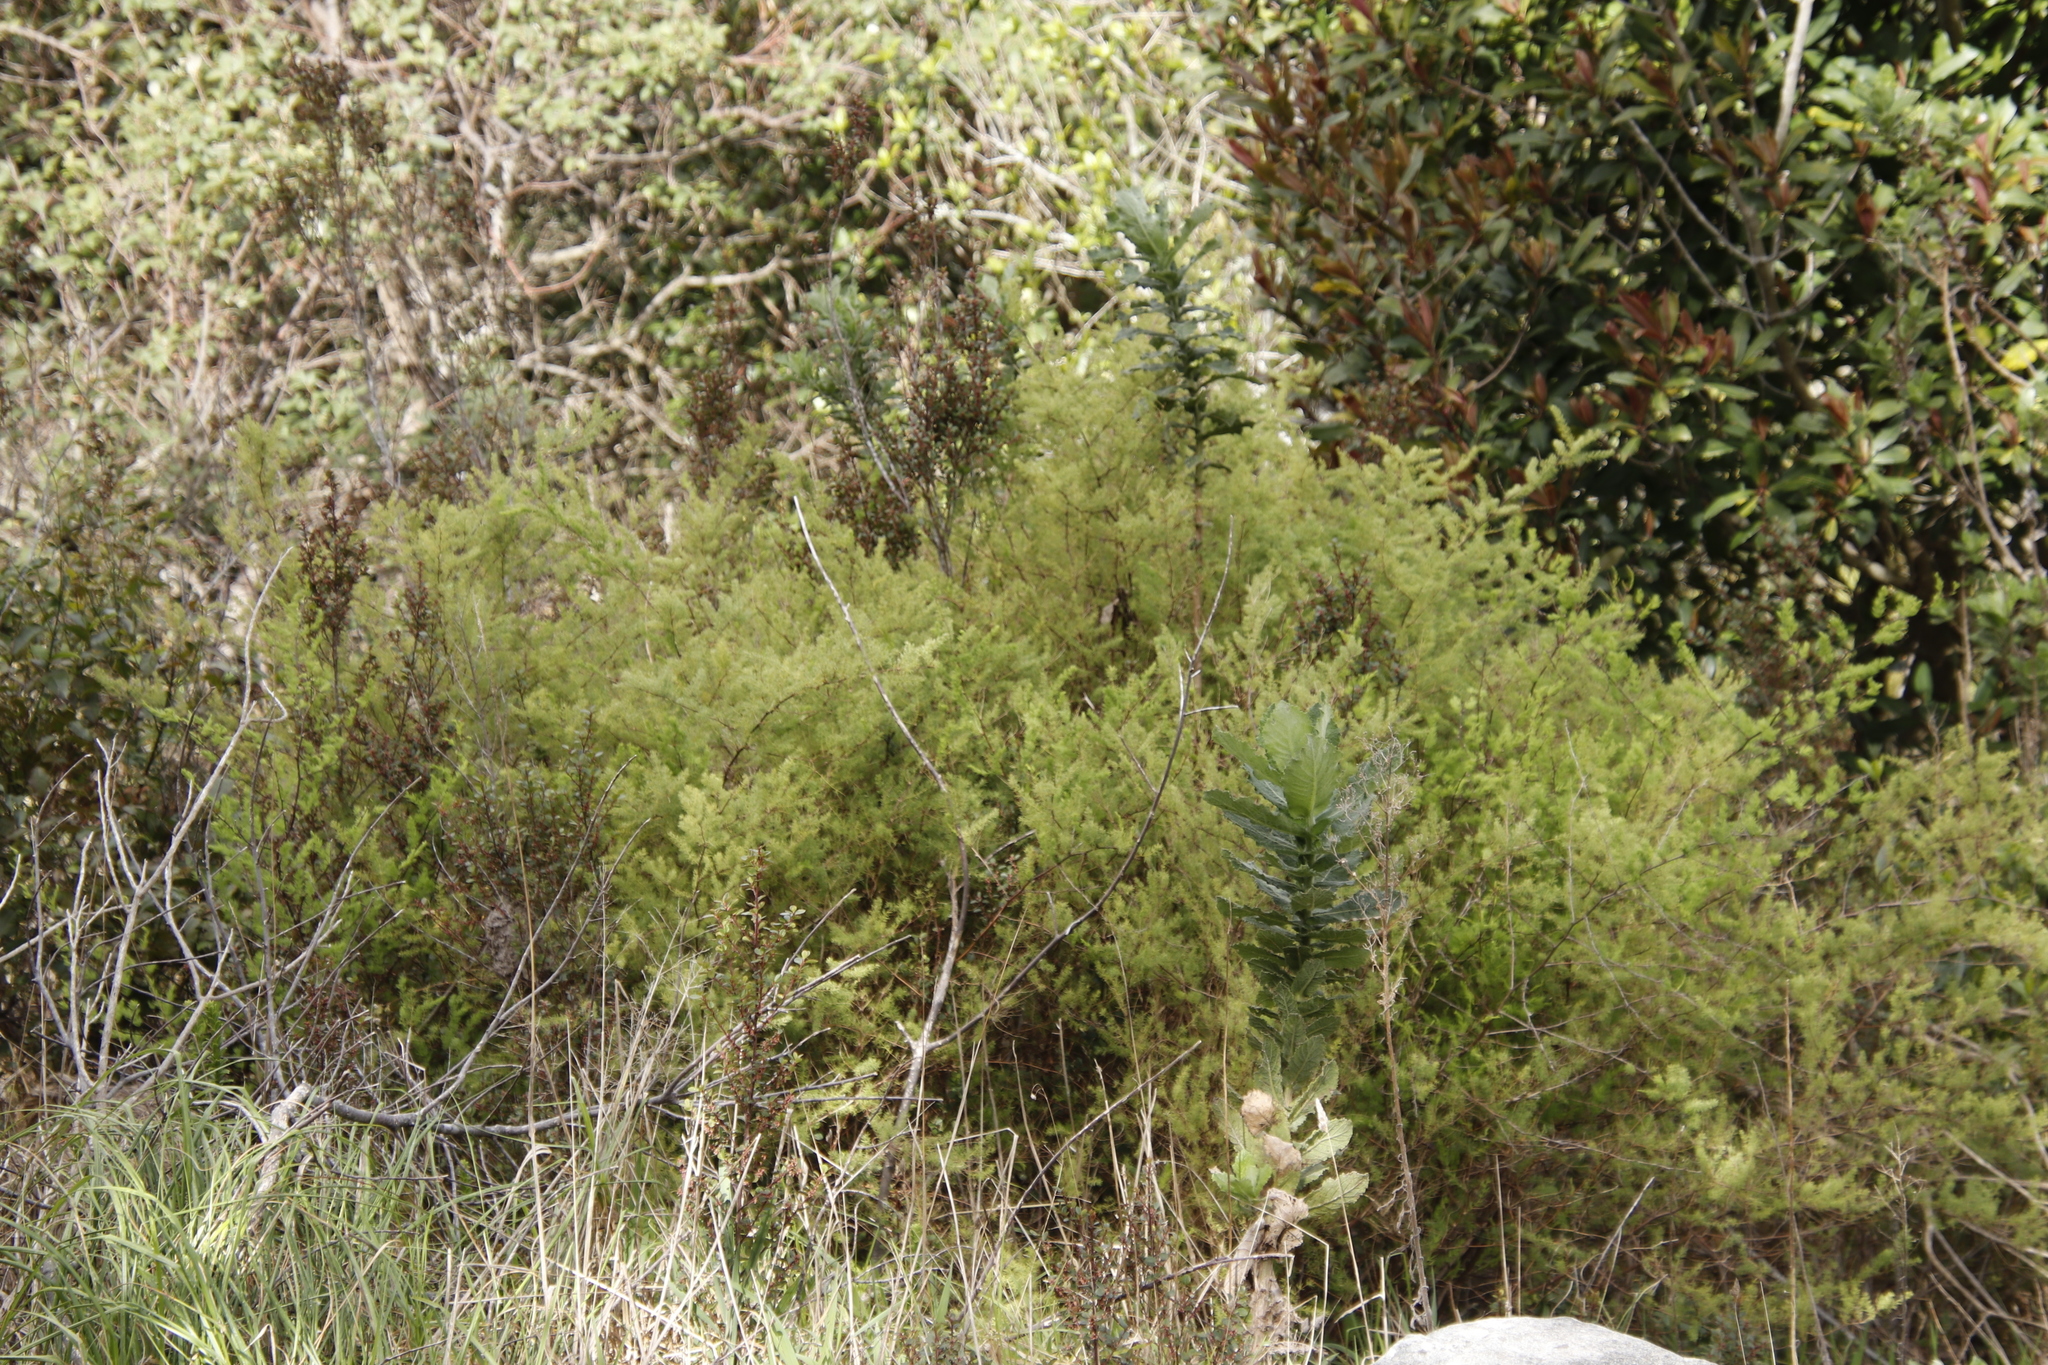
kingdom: Plantae
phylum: Tracheophyta
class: Liliopsida
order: Asparagales
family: Asparagaceae
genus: Asparagus
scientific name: Asparagus rubicundus
